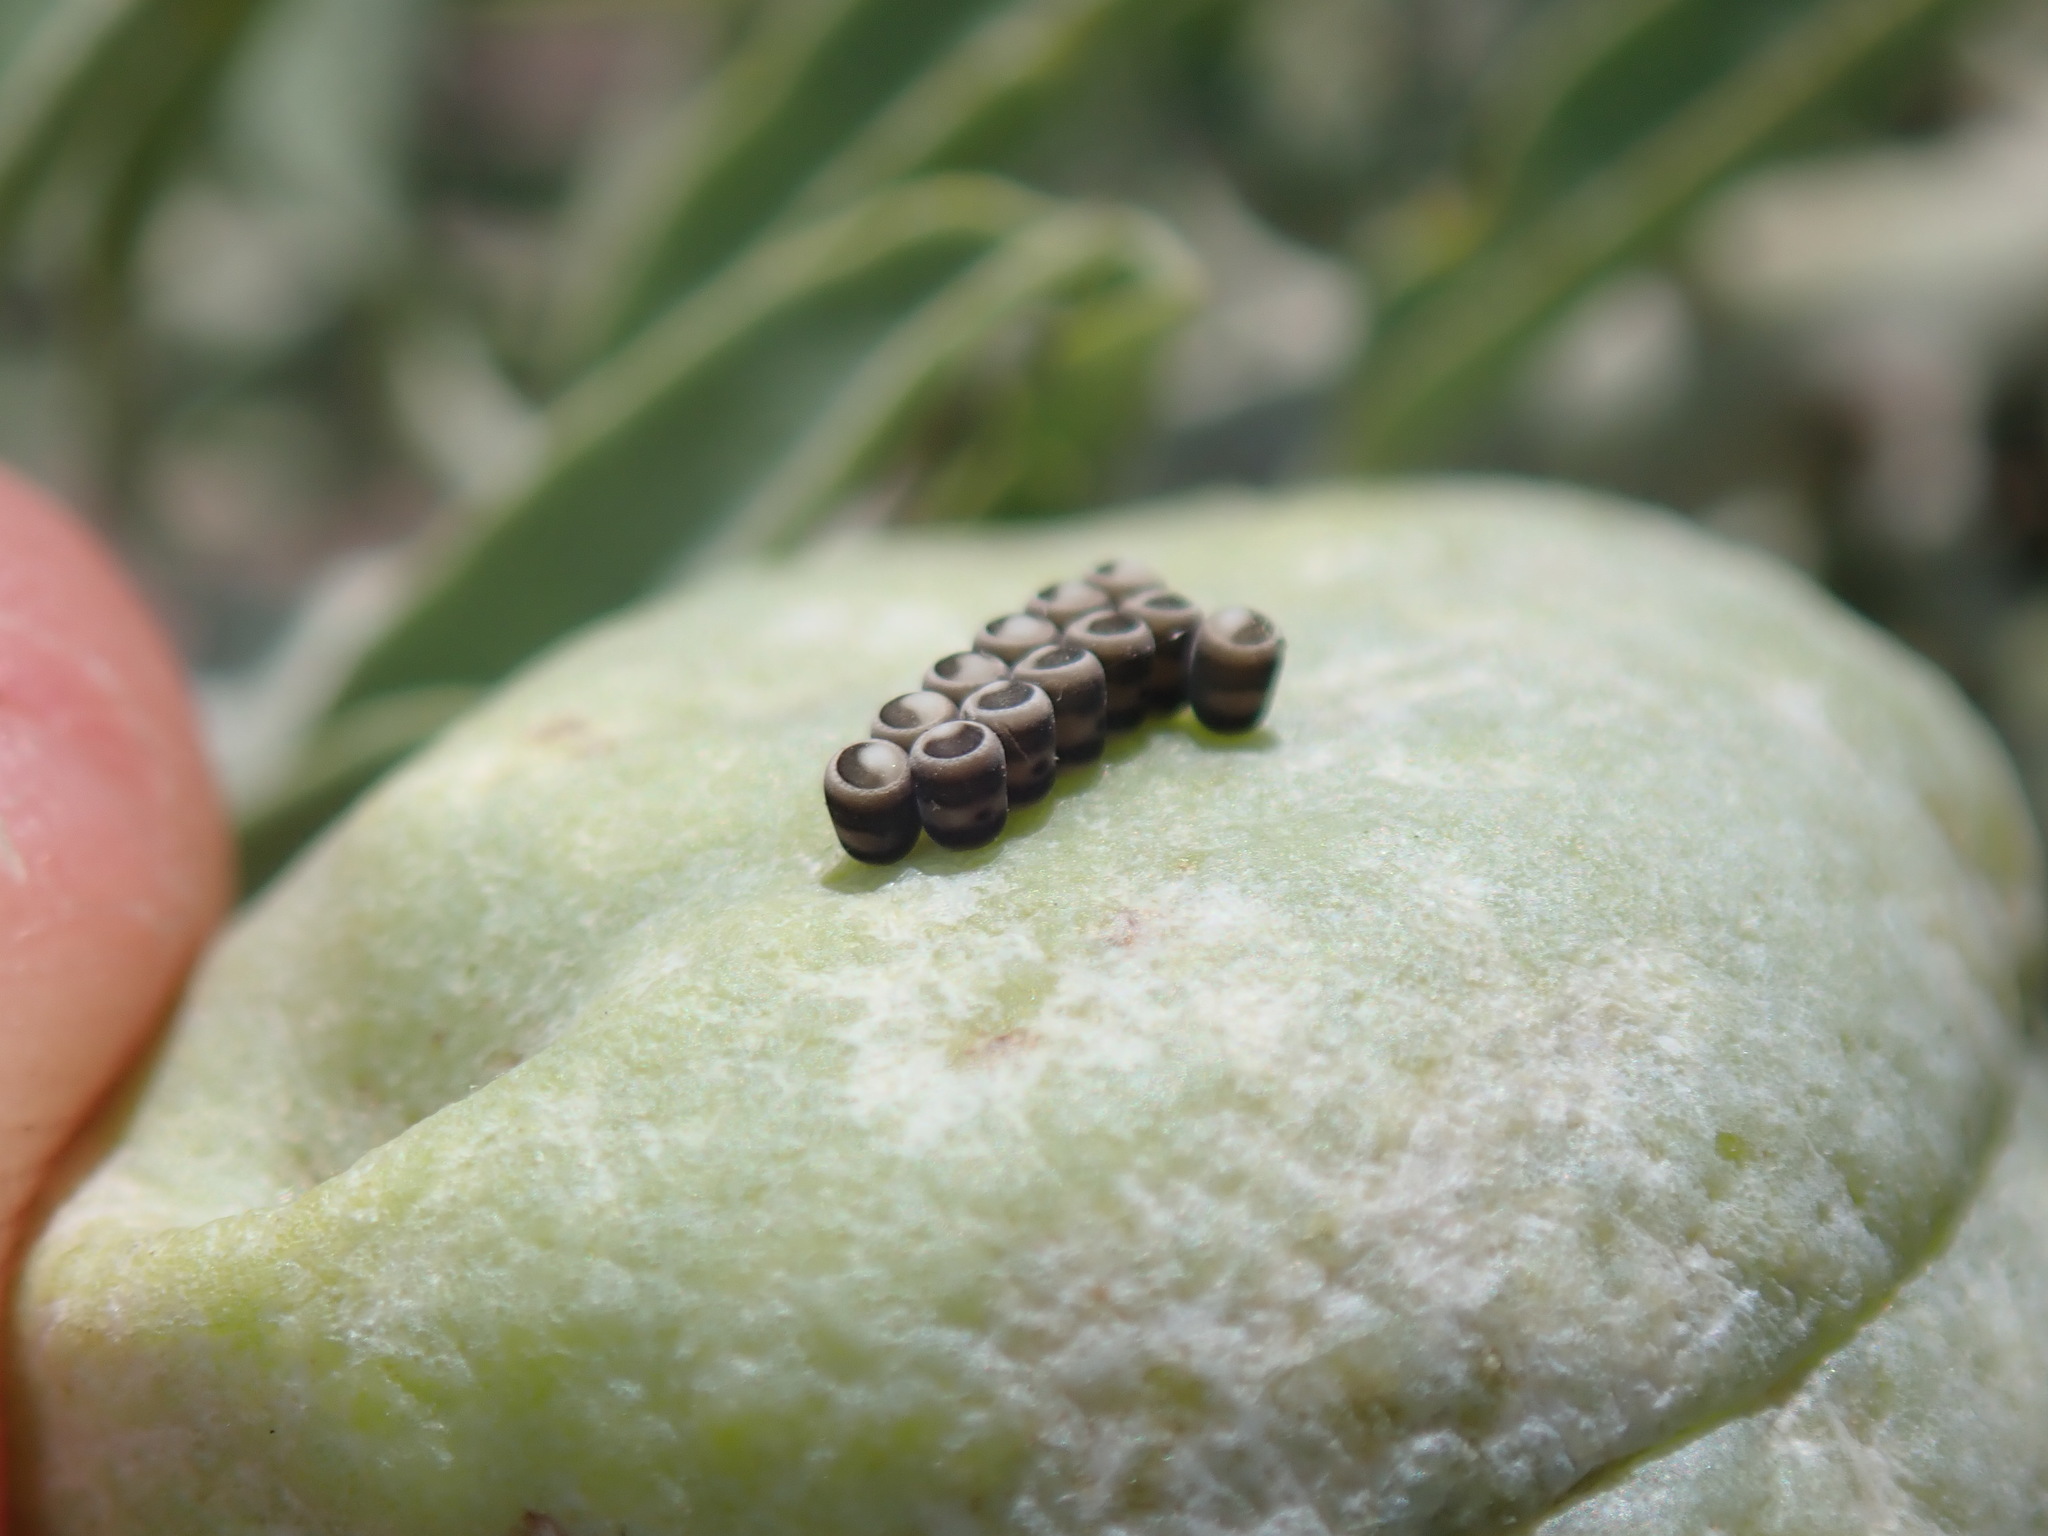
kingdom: Animalia
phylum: Arthropoda
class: Insecta
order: Hemiptera
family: Pentatomidae
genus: Murgantia
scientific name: Murgantia histrionica
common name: Harlequin bug
